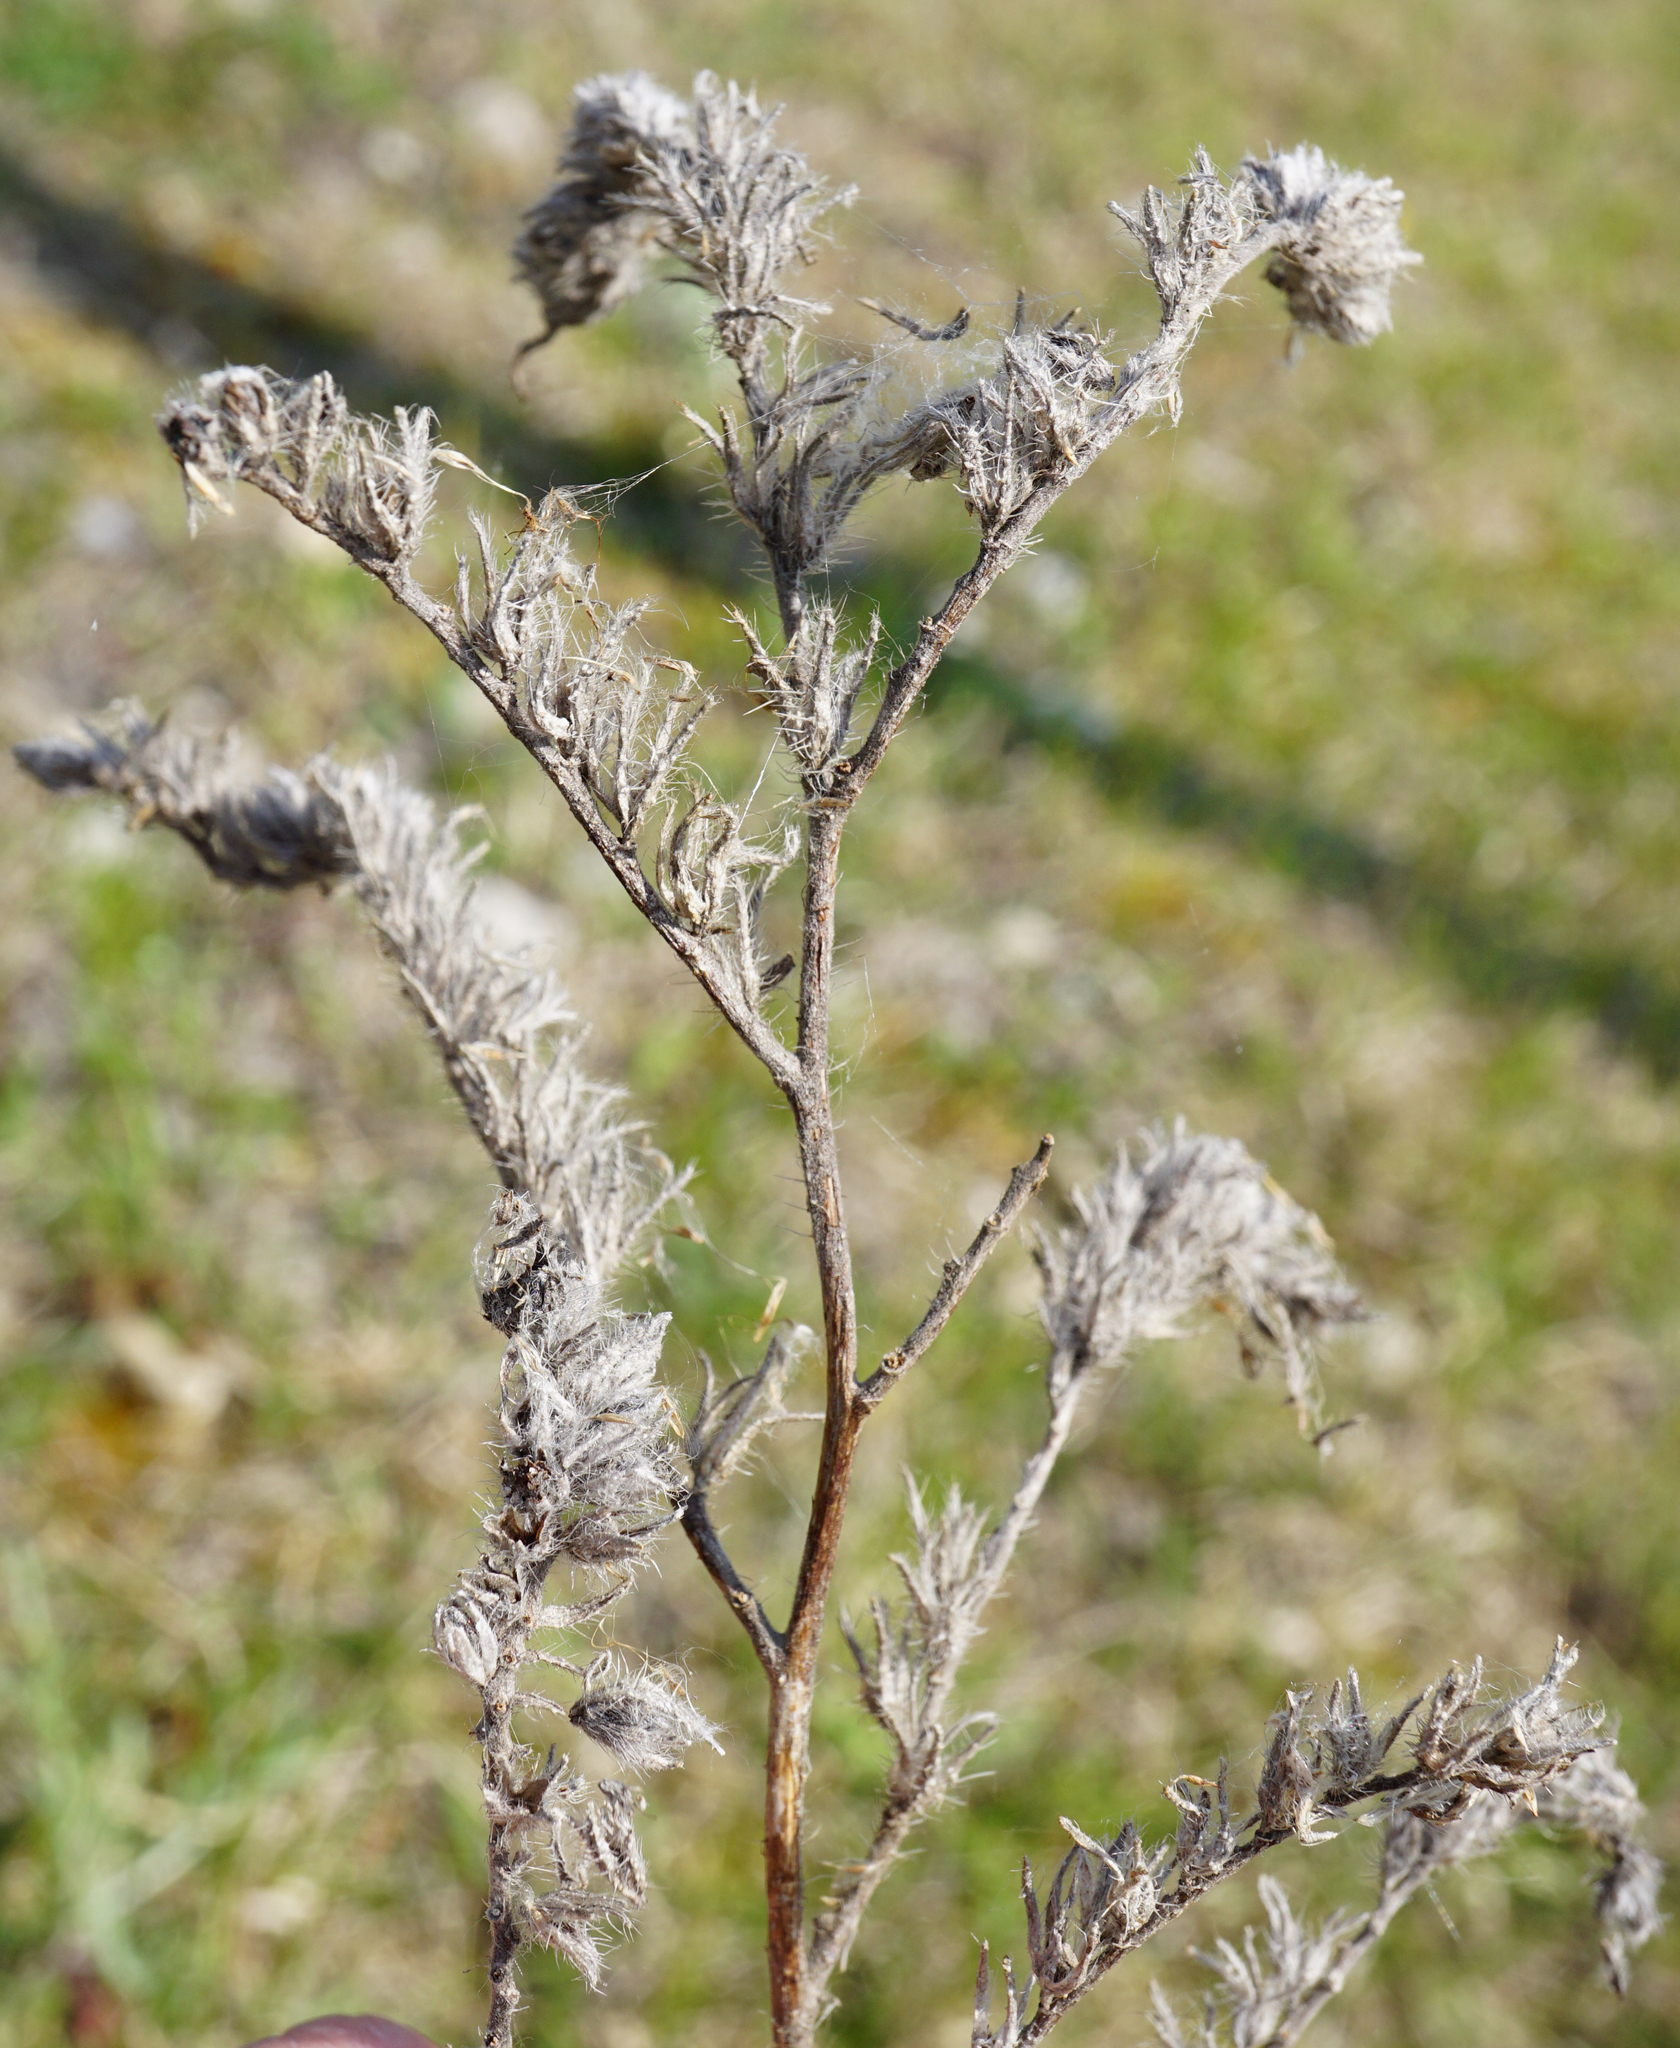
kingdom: Plantae
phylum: Tracheophyta
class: Magnoliopsida
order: Boraginales
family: Boraginaceae
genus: Echium
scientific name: Echium vulgare
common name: Common viper's bugloss
